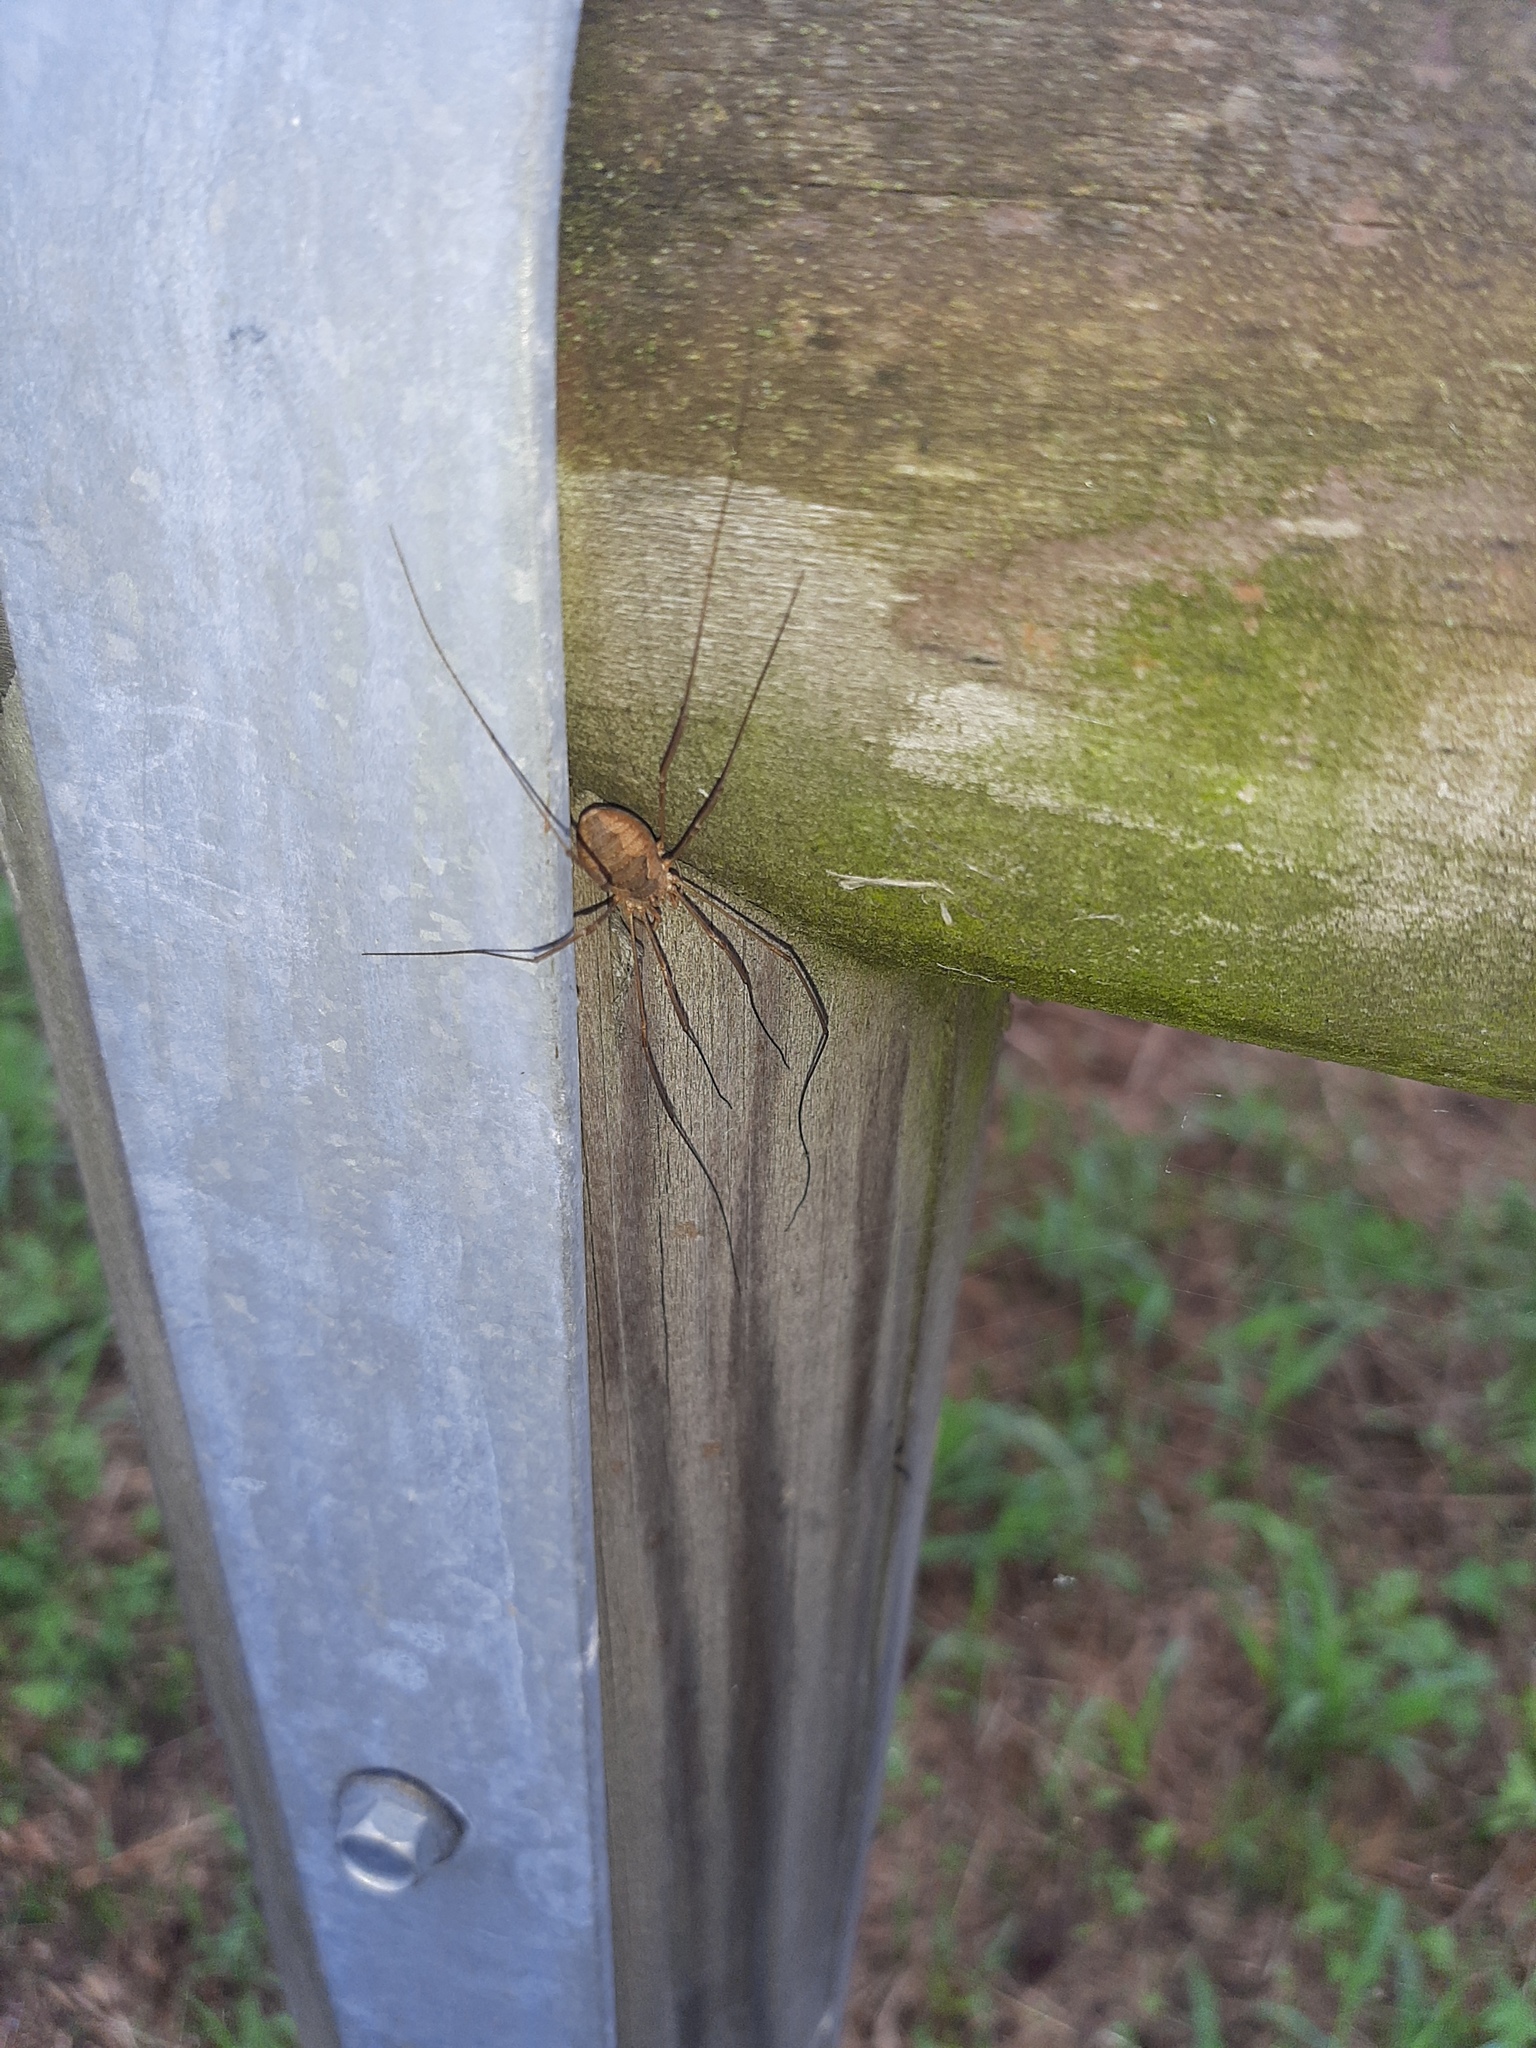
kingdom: Animalia
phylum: Arthropoda
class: Arachnida
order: Opiliones
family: Phalangiidae
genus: Phalangium
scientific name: Phalangium opilio
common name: Daddy longleg
